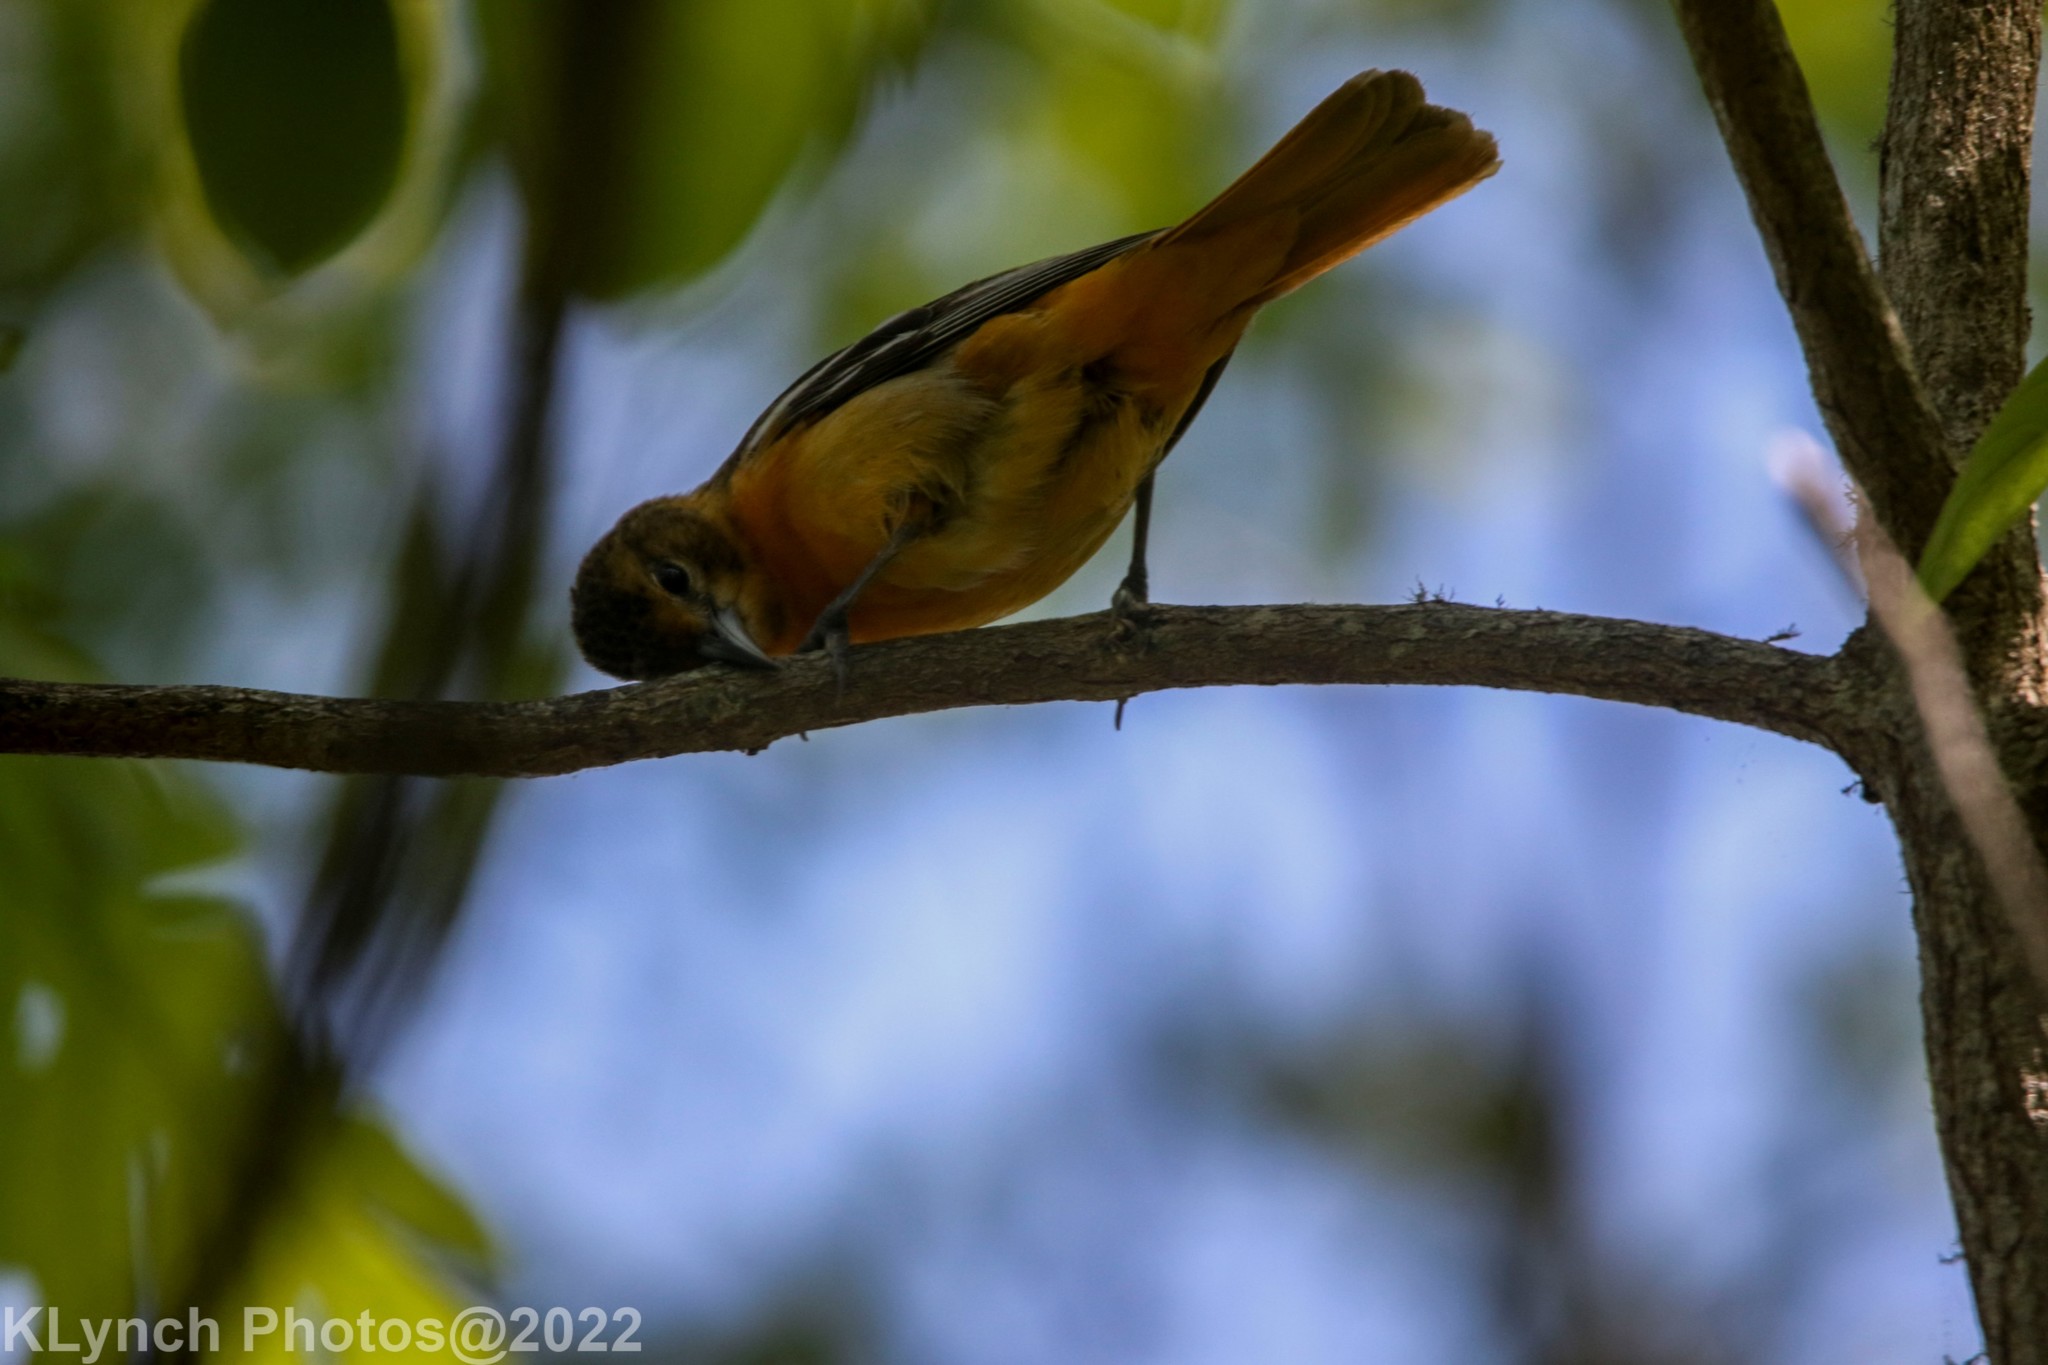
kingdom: Animalia
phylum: Chordata
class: Aves
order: Passeriformes
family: Icteridae
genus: Icterus
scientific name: Icterus galbula
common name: Baltimore oriole
